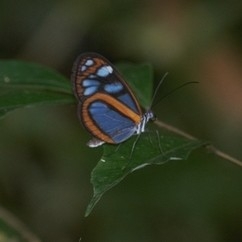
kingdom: Animalia
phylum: Arthropoda
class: Insecta
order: Lepidoptera
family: Nymphalidae
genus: Oleria
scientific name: Oleria zarepha
